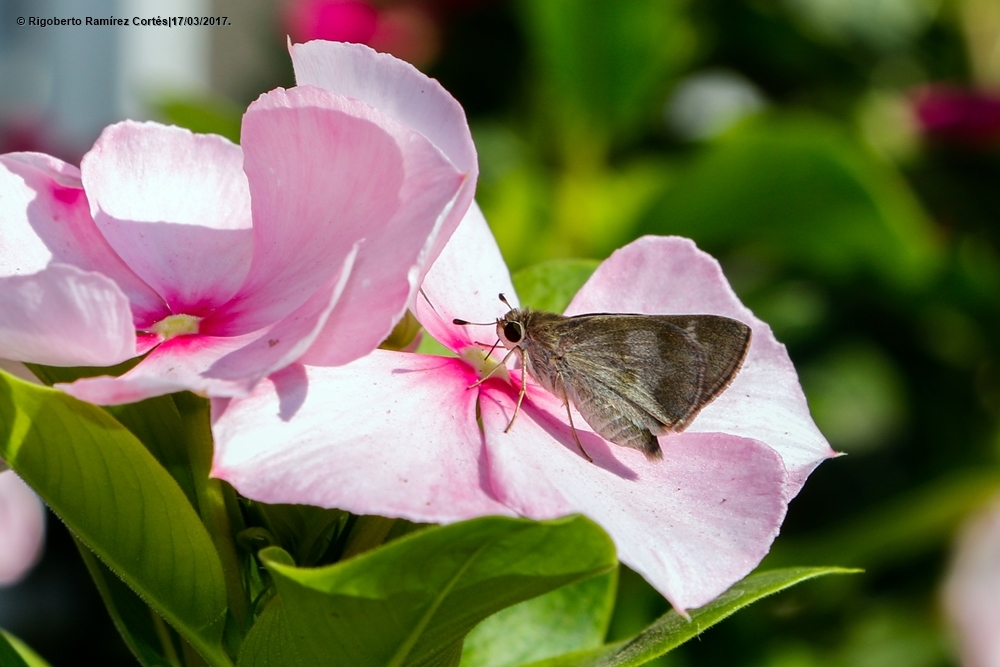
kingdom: Animalia
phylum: Arthropoda
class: Insecta
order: Lepidoptera
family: Hesperiidae
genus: Polites
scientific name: Polites vibex
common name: Whirlabout
